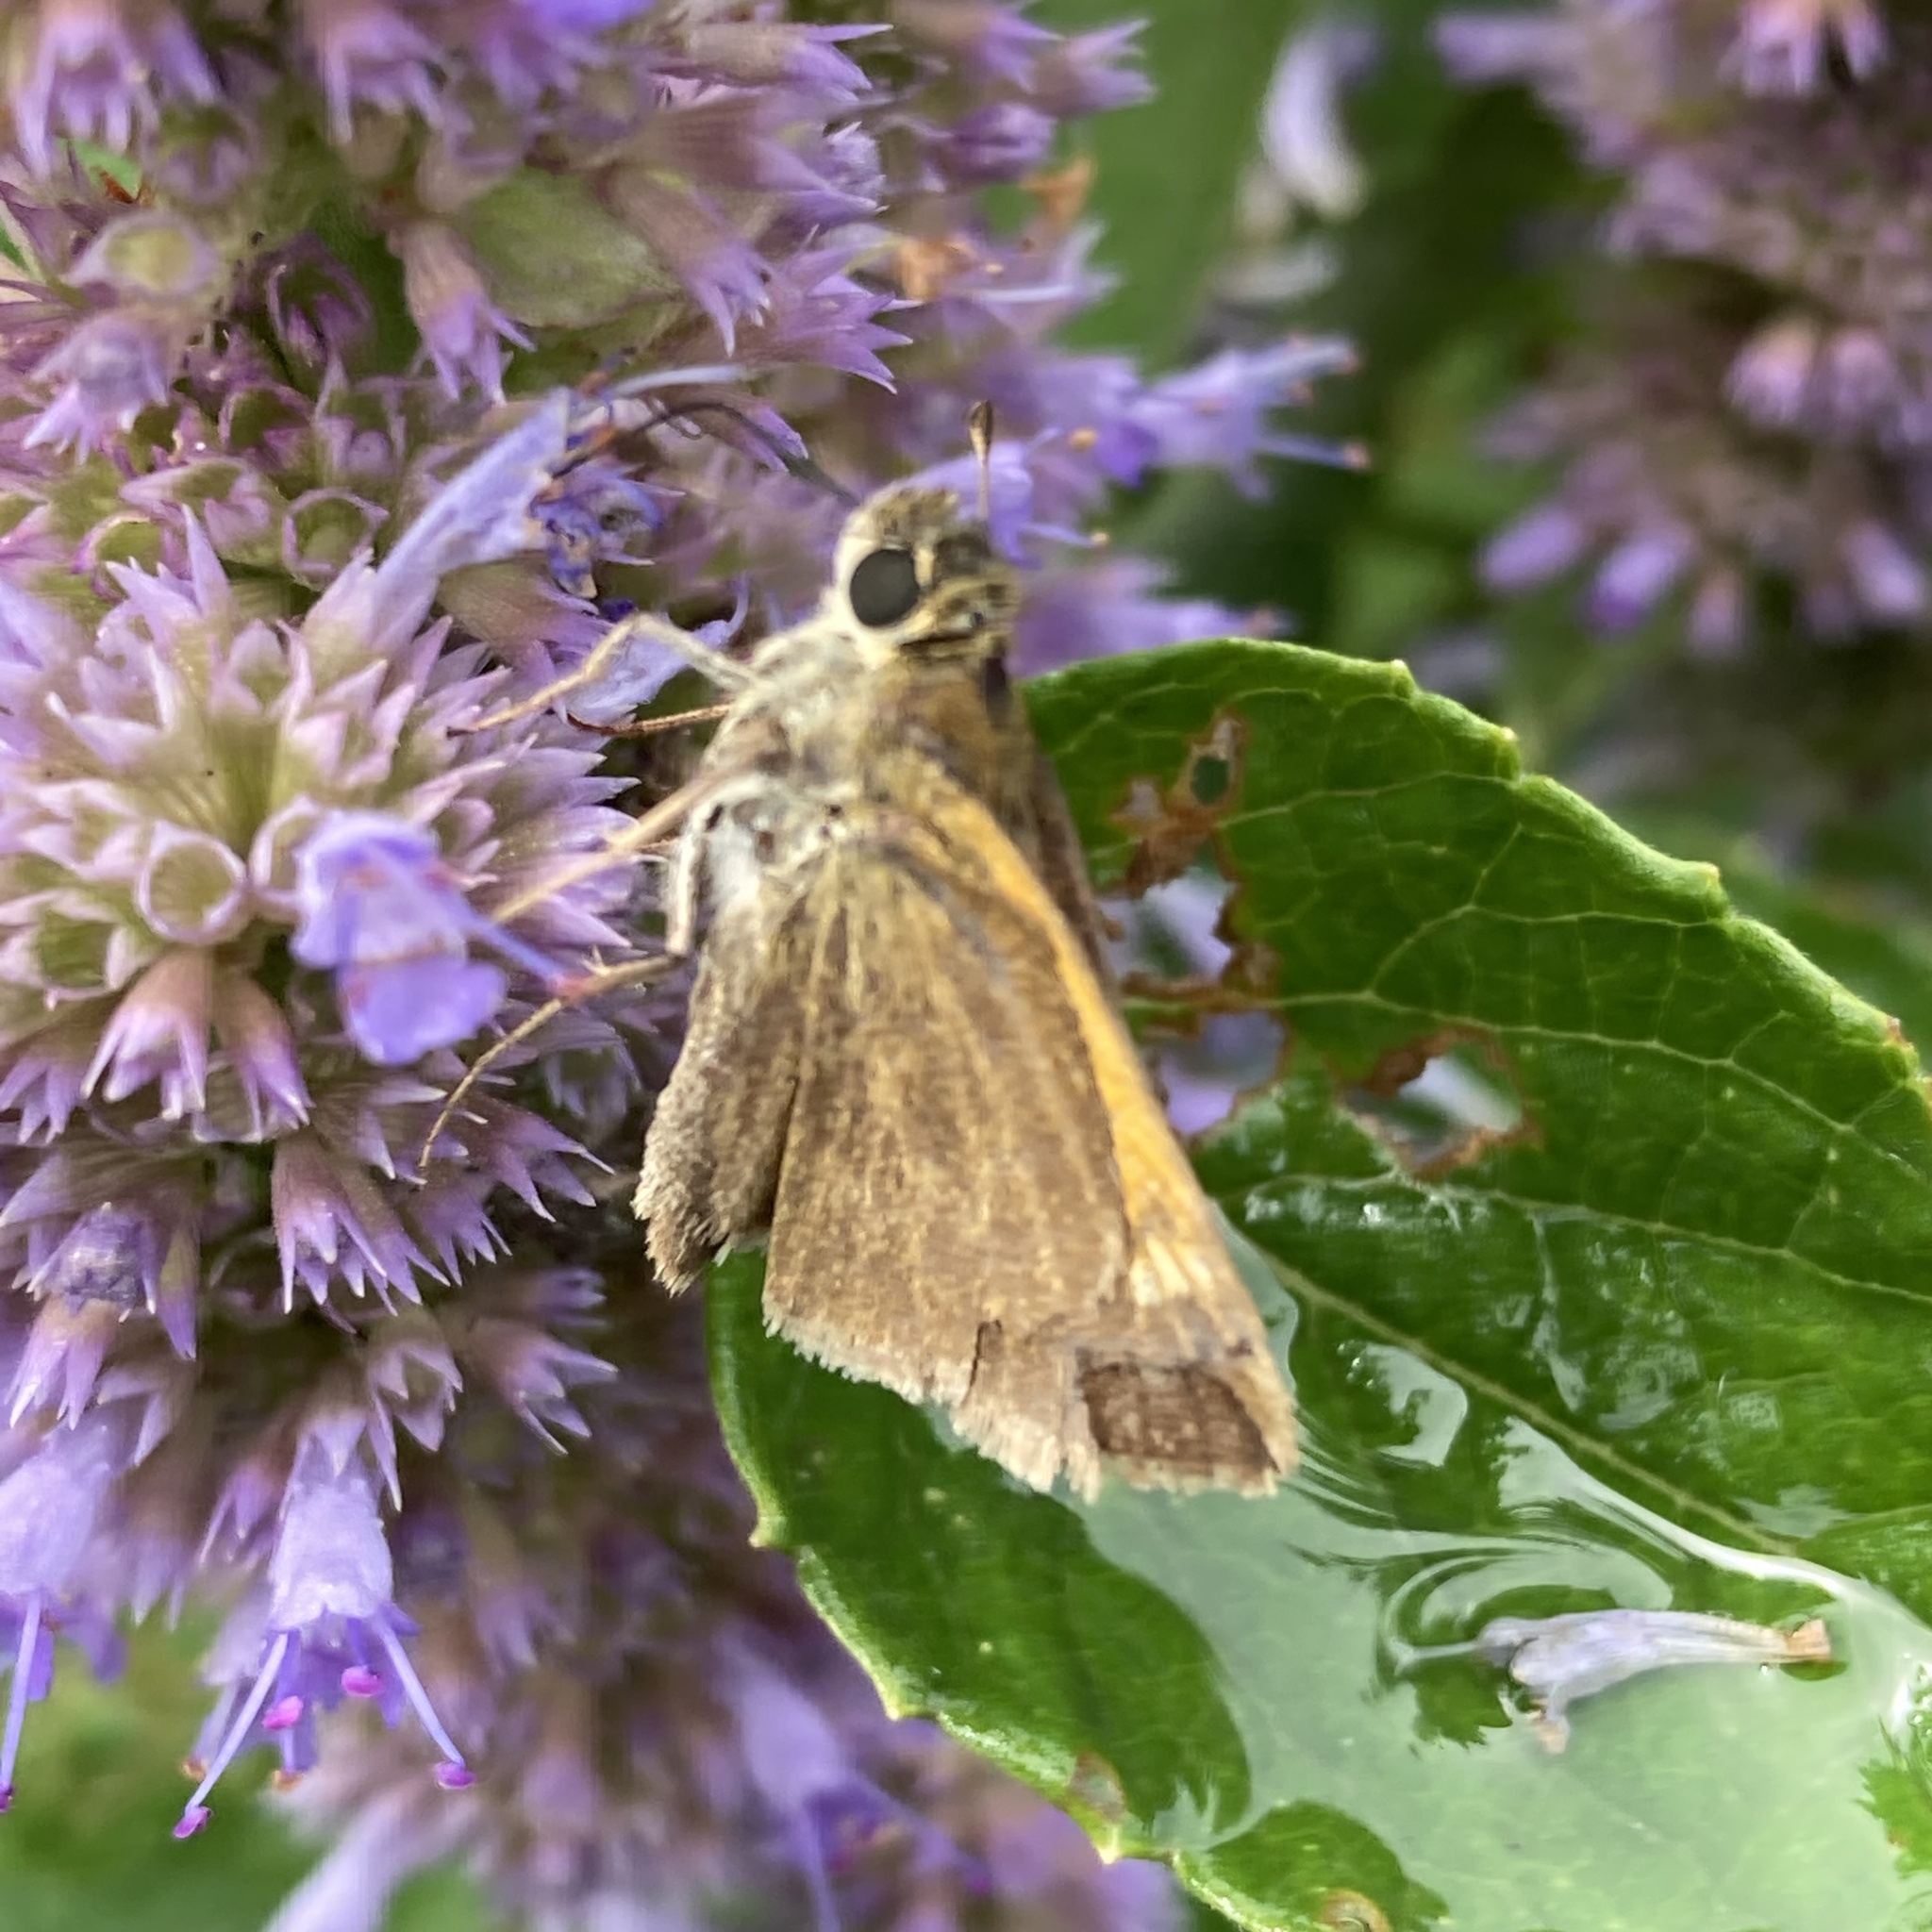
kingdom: Animalia
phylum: Arthropoda
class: Insecta
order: Lepidoptera
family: Hesperiidae
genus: Polites
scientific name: Polites themistocles
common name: Tawny-edged skipper
